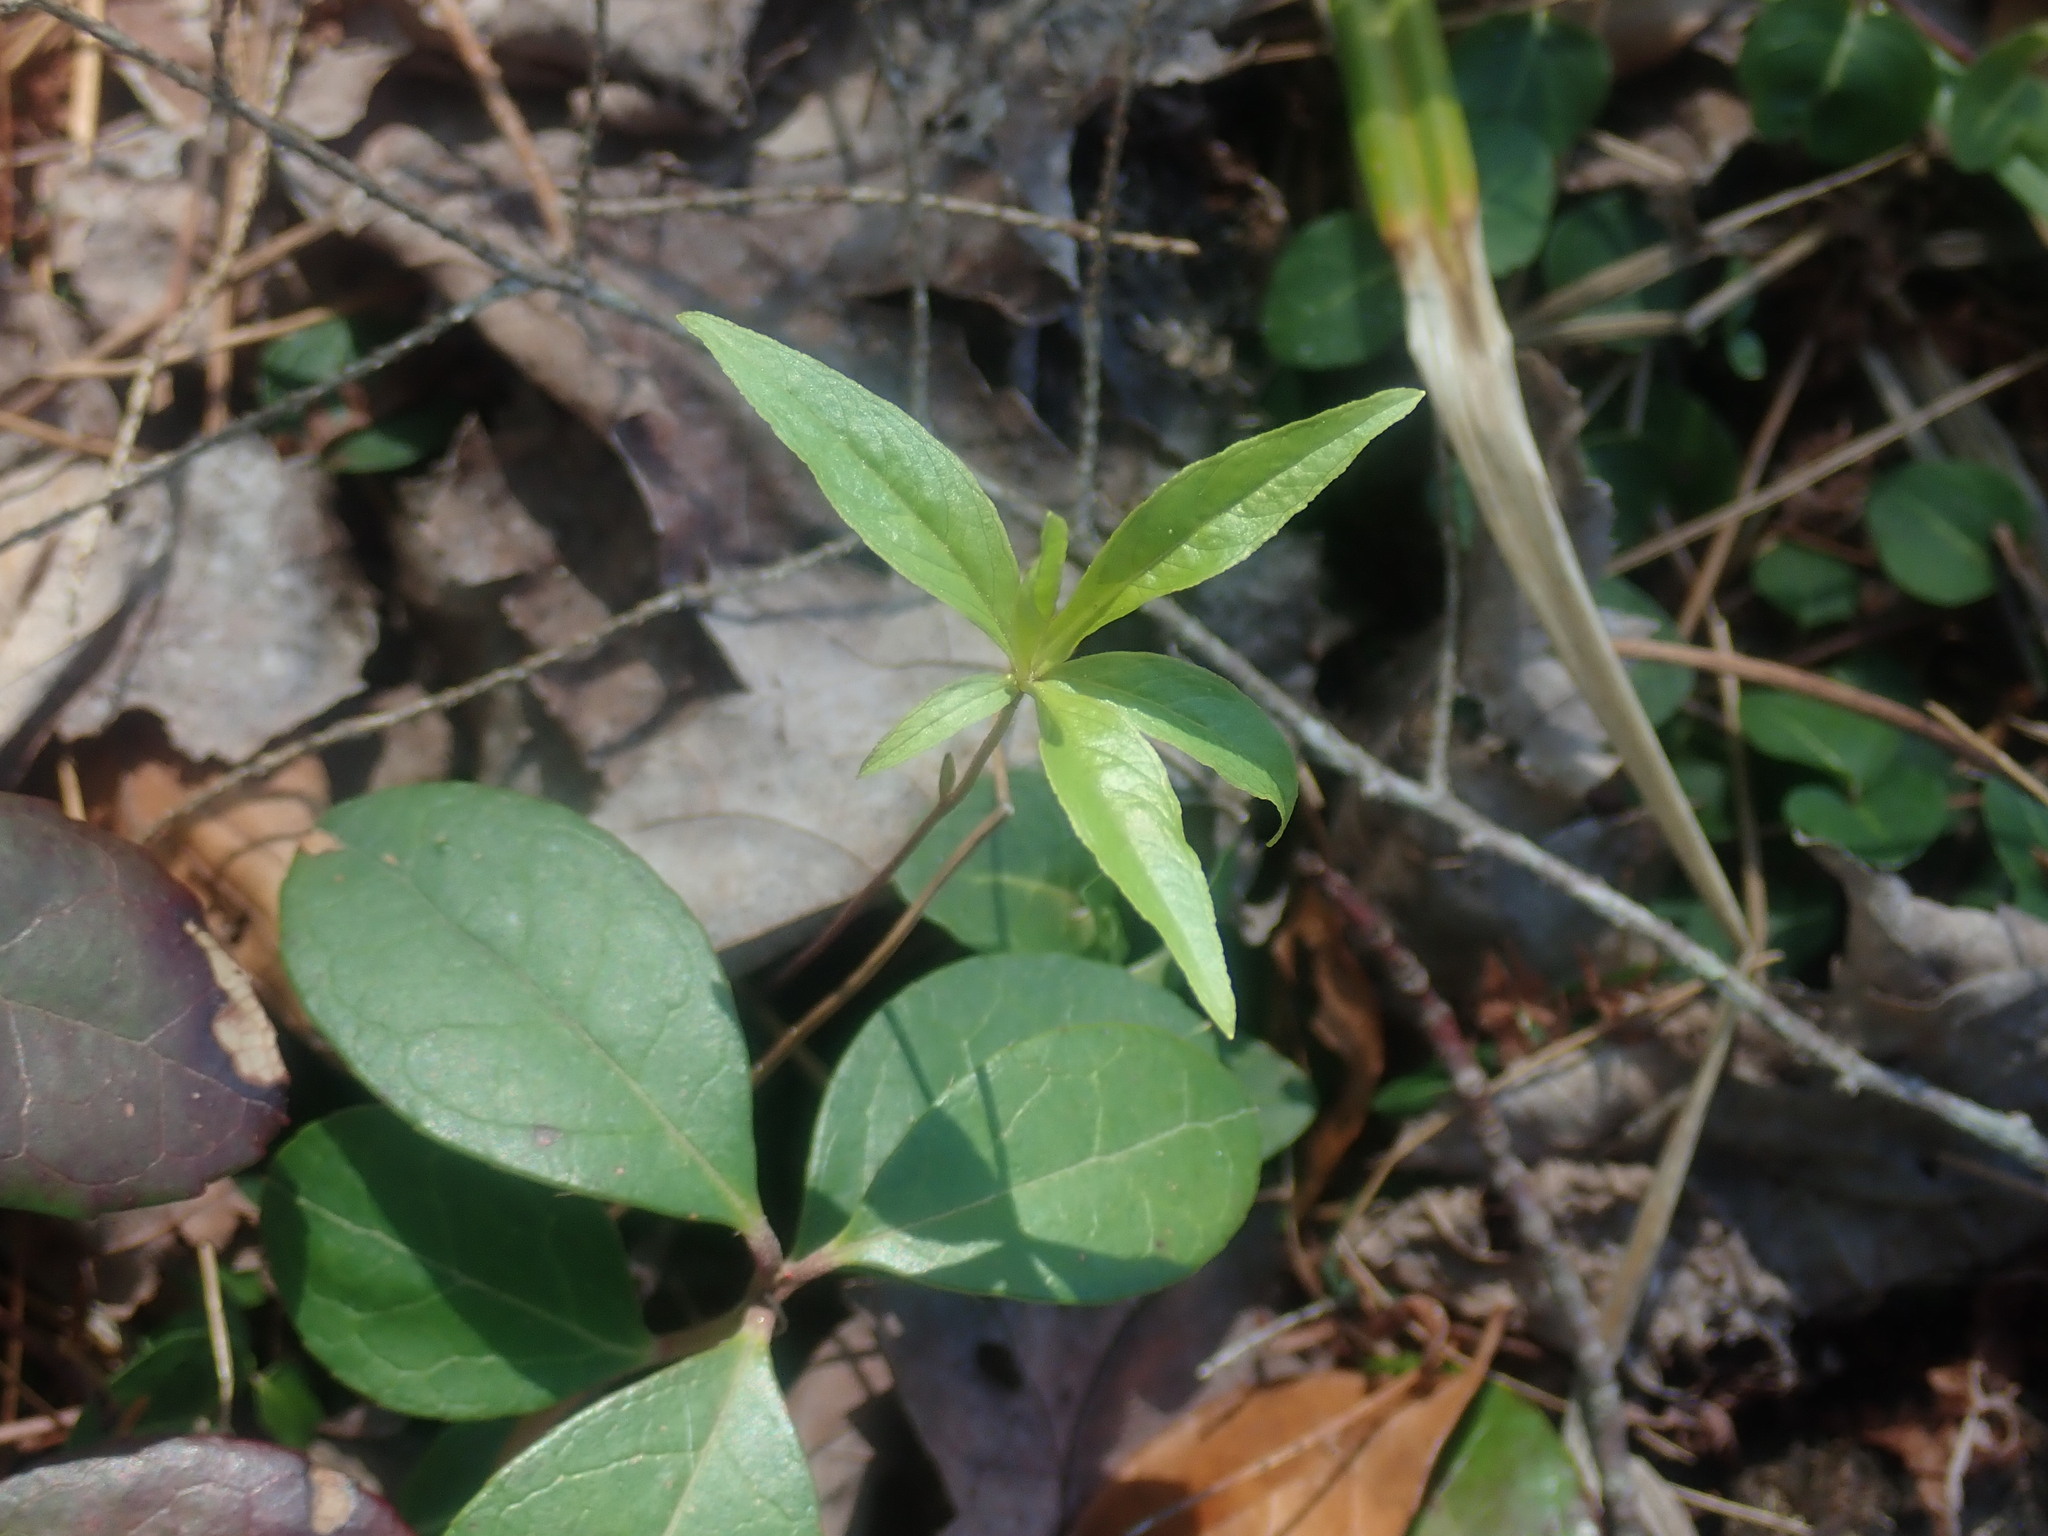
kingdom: Plantae
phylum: Tracheophyta
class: Magnoliopsida
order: Ericales
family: Primulaceae
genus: Lysimachia
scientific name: Lysimachia borealis
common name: American starflower
